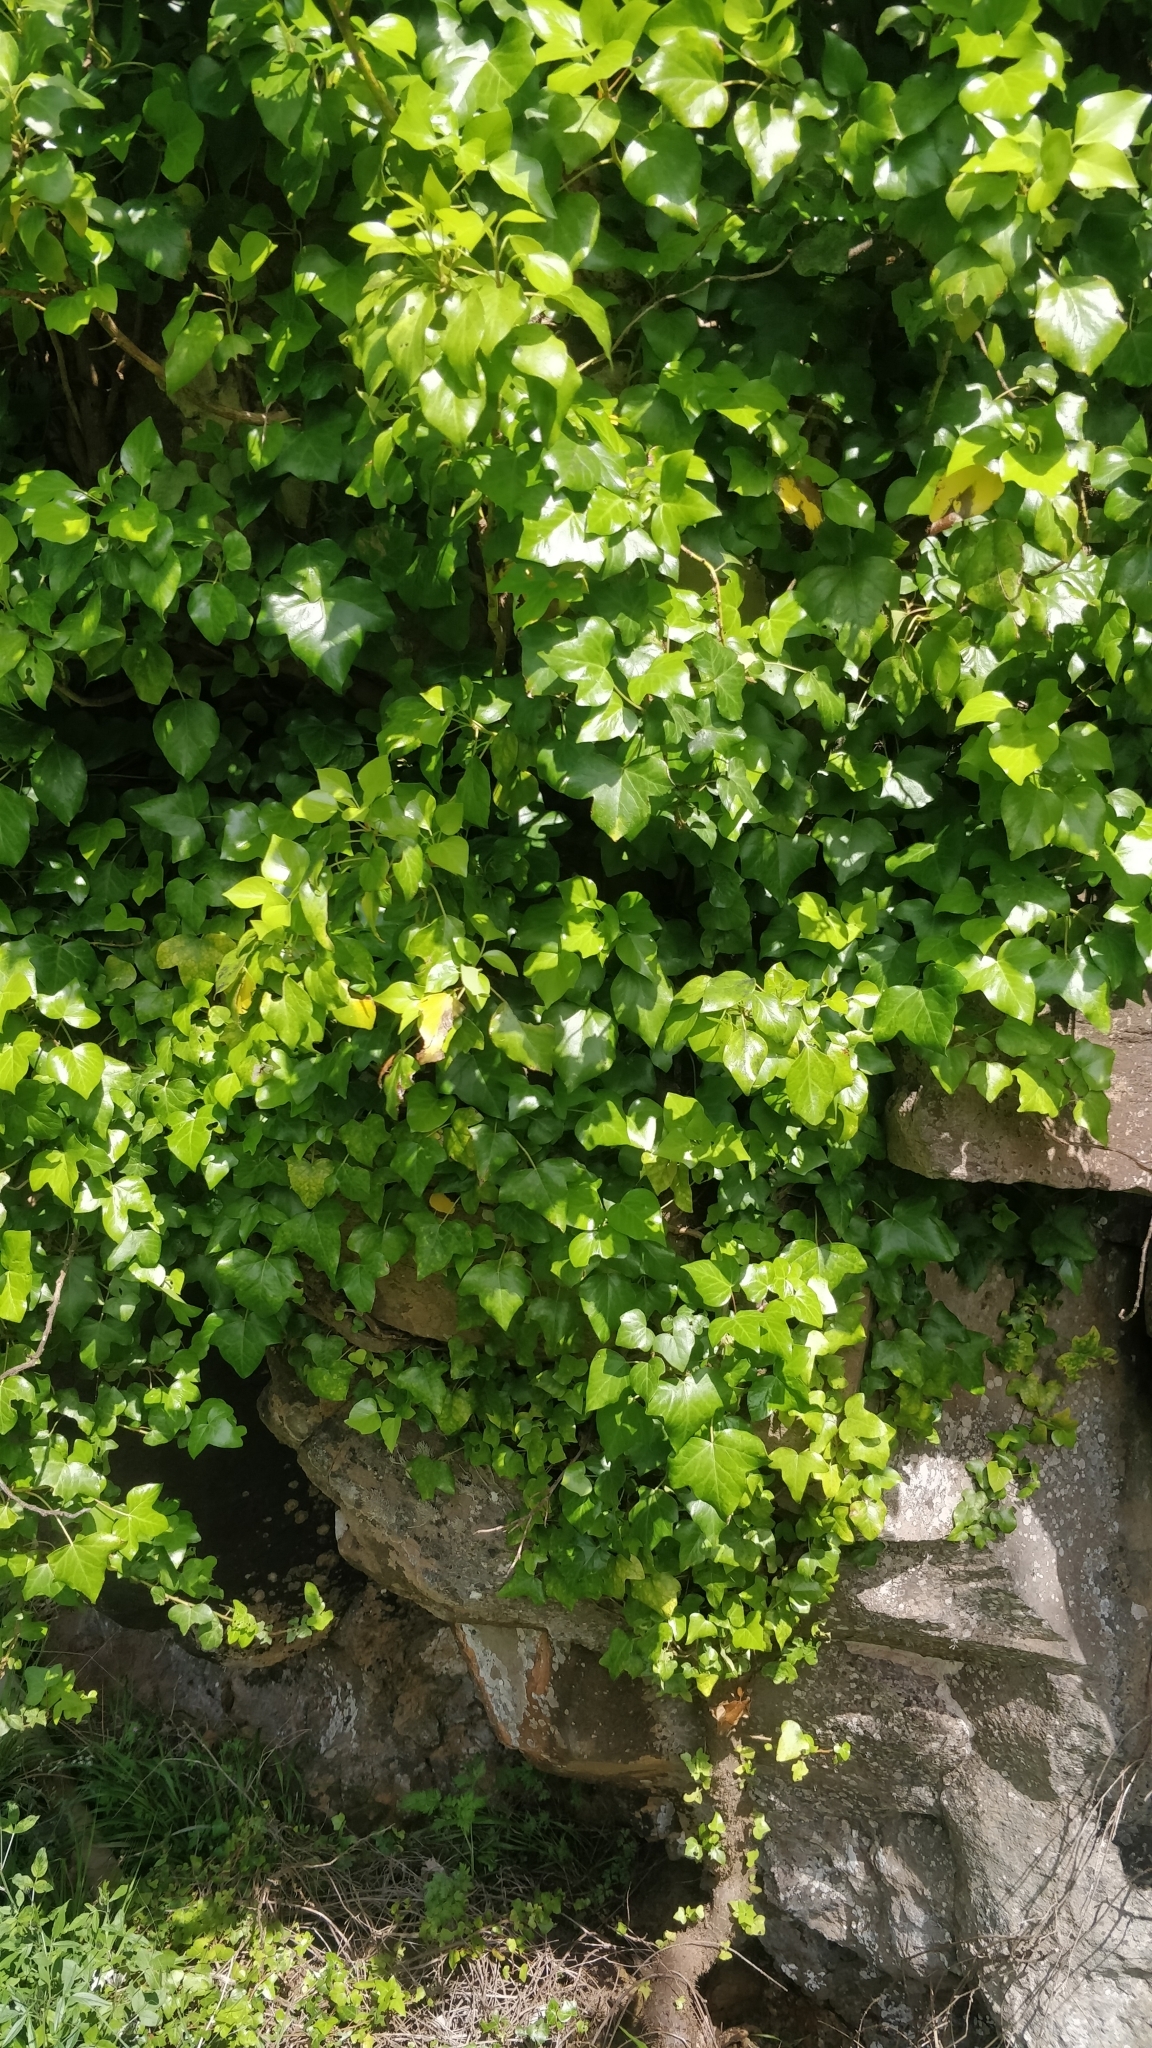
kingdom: Plantae
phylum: Tracheophyta
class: Magnoliopsida
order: Apiales
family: Araliaceae
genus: Hedera
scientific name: Hedera maderensis
